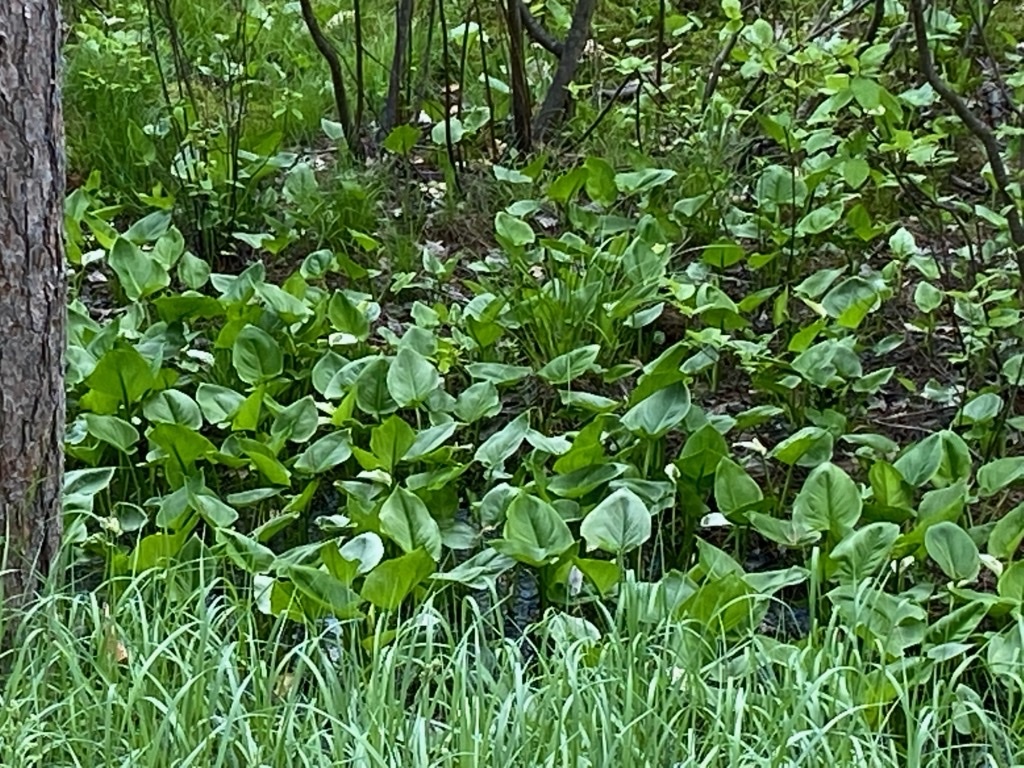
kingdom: Plantae
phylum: Tracheophyta
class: Liliopsida
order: Alismatales
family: Araceae
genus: Calla
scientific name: Calla palustris
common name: Bog arum
